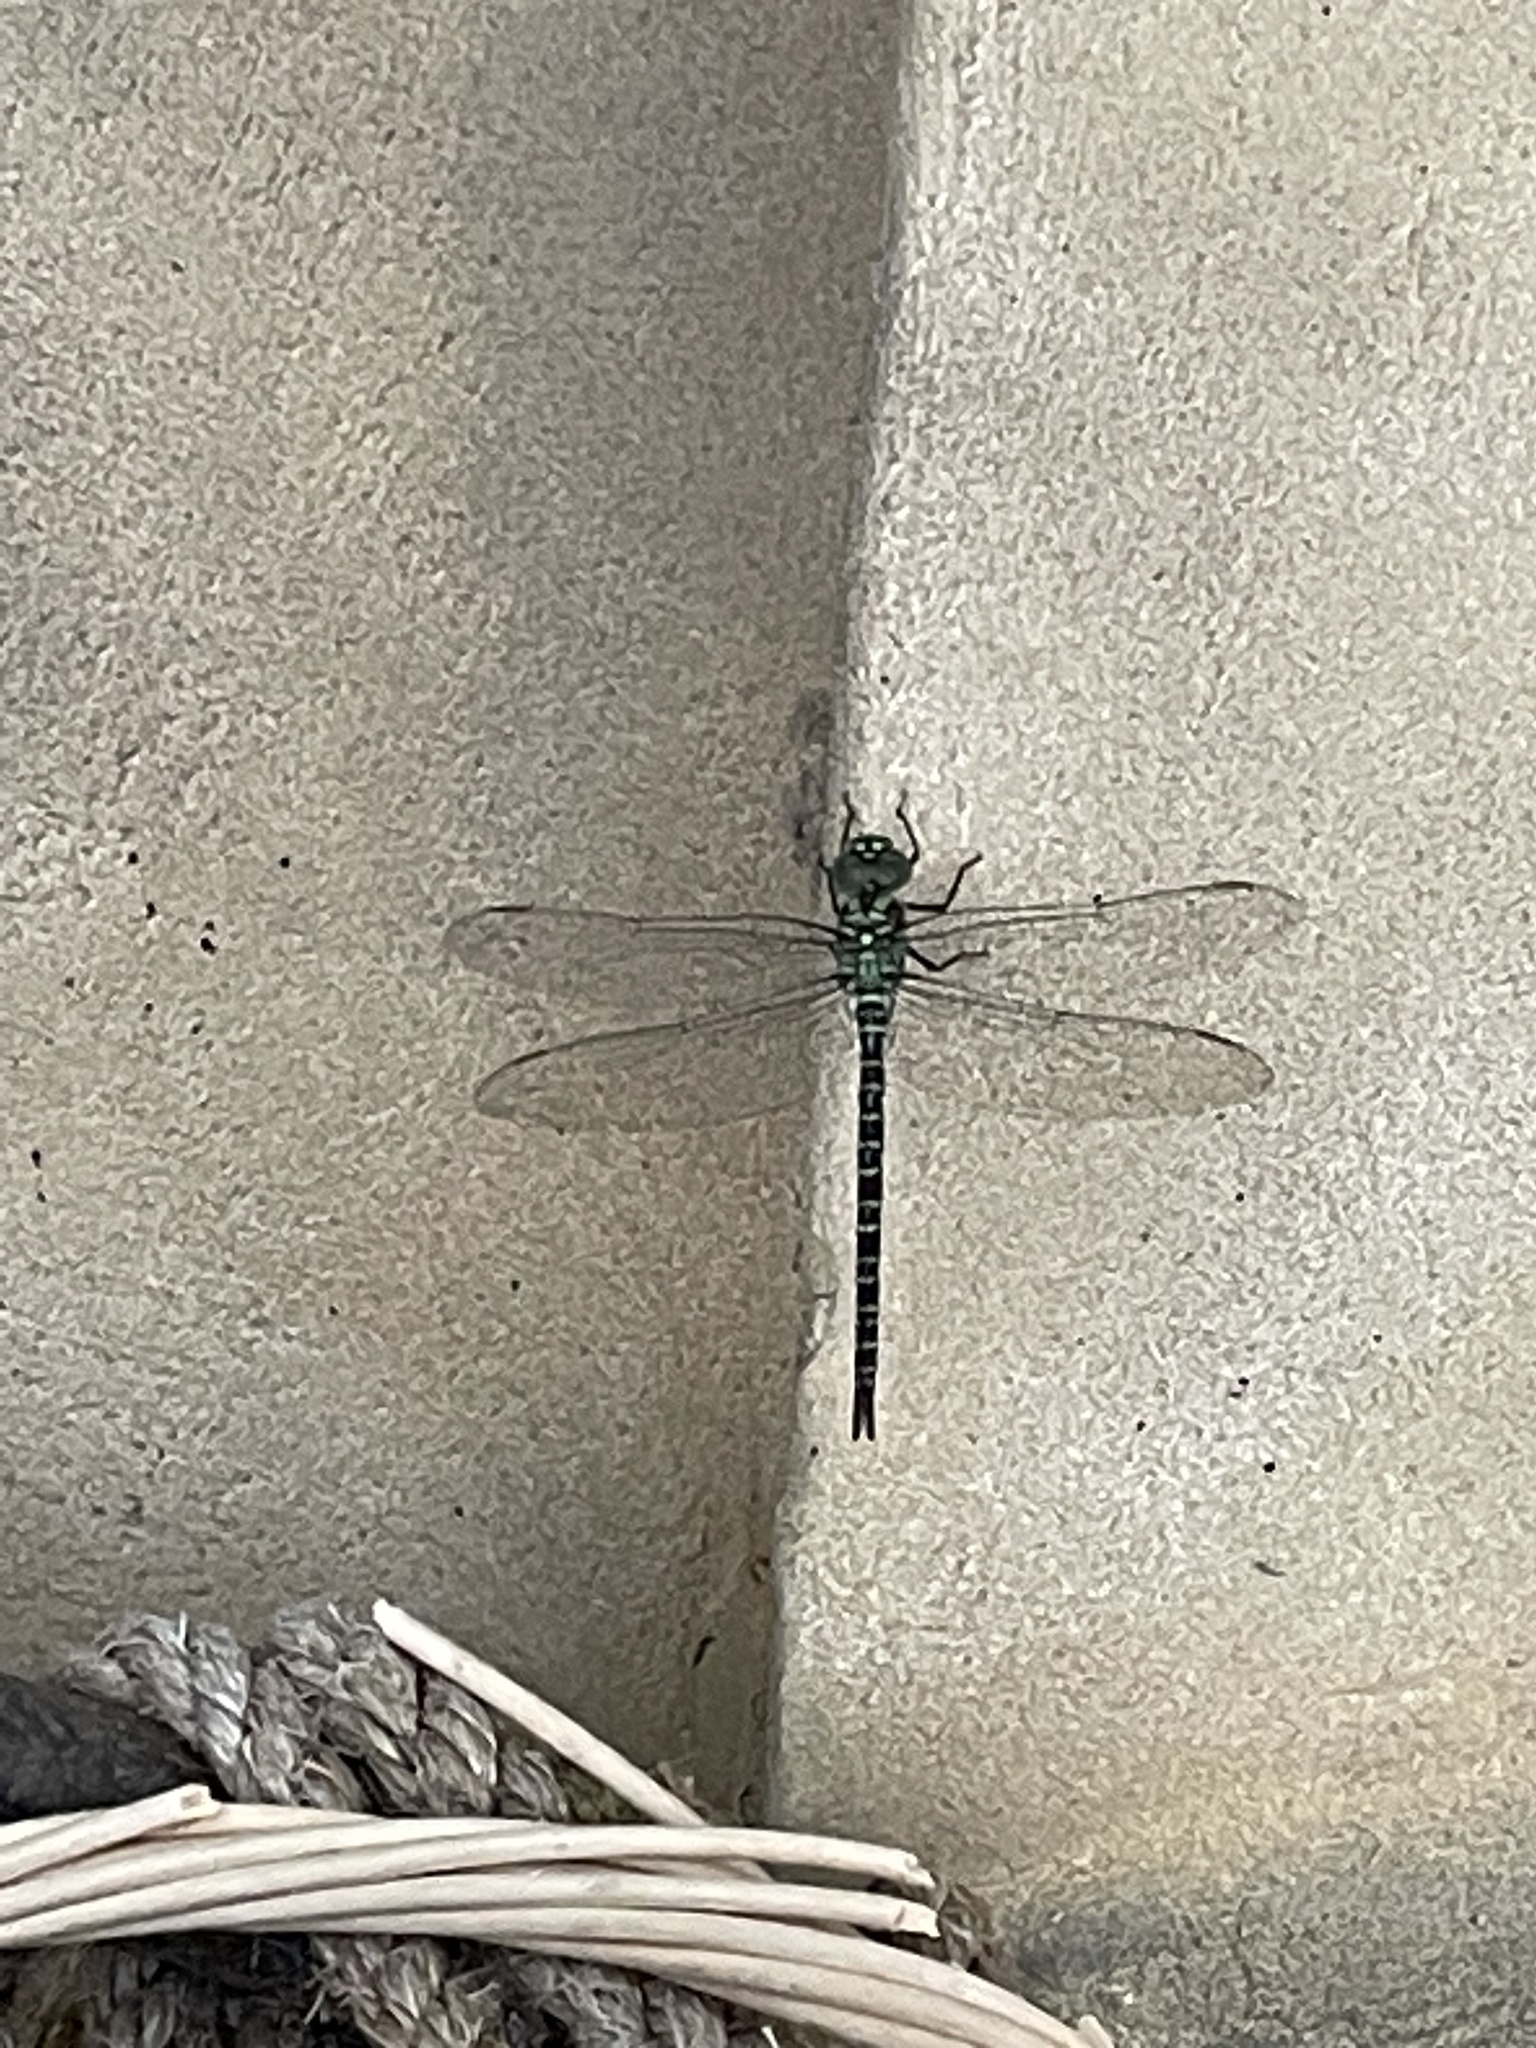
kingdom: Animalia
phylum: Arthropoda
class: Insecta
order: Odonata
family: Aeshnidae
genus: Coryphaeschna
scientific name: Coryphaeschna ingens
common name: Regal darner
